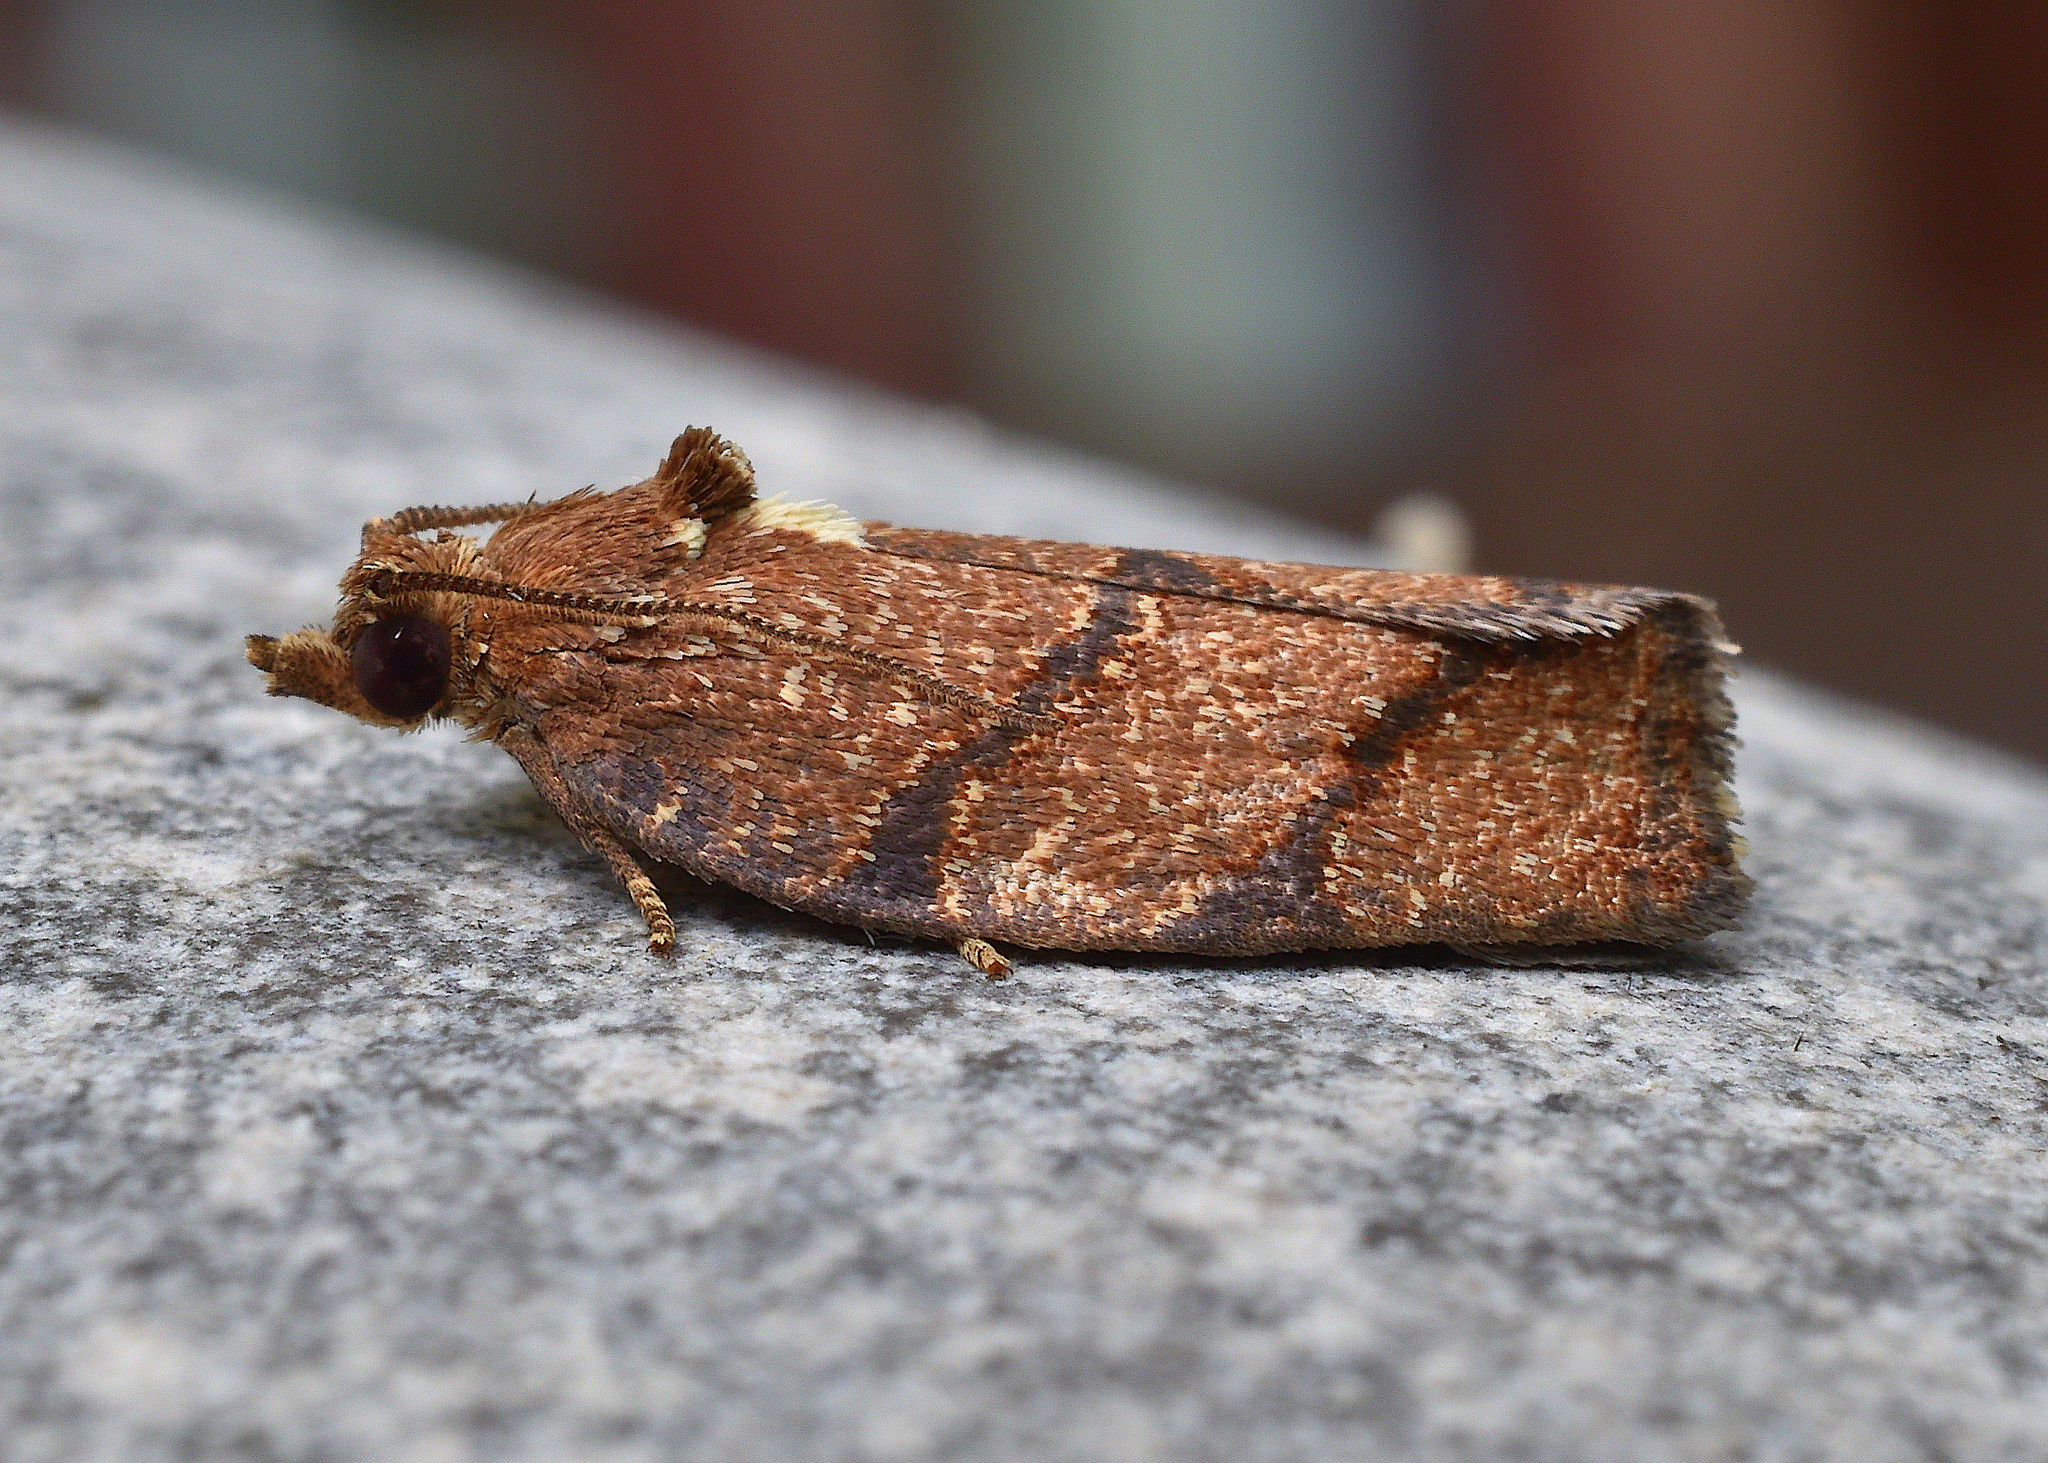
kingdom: Animalia
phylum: Arthropoda
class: Insecta
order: Lepidoptera
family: Tortricidae
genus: Argyrotaenia
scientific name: Argyrotaenia juglandana
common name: Hickory leafroller moth
